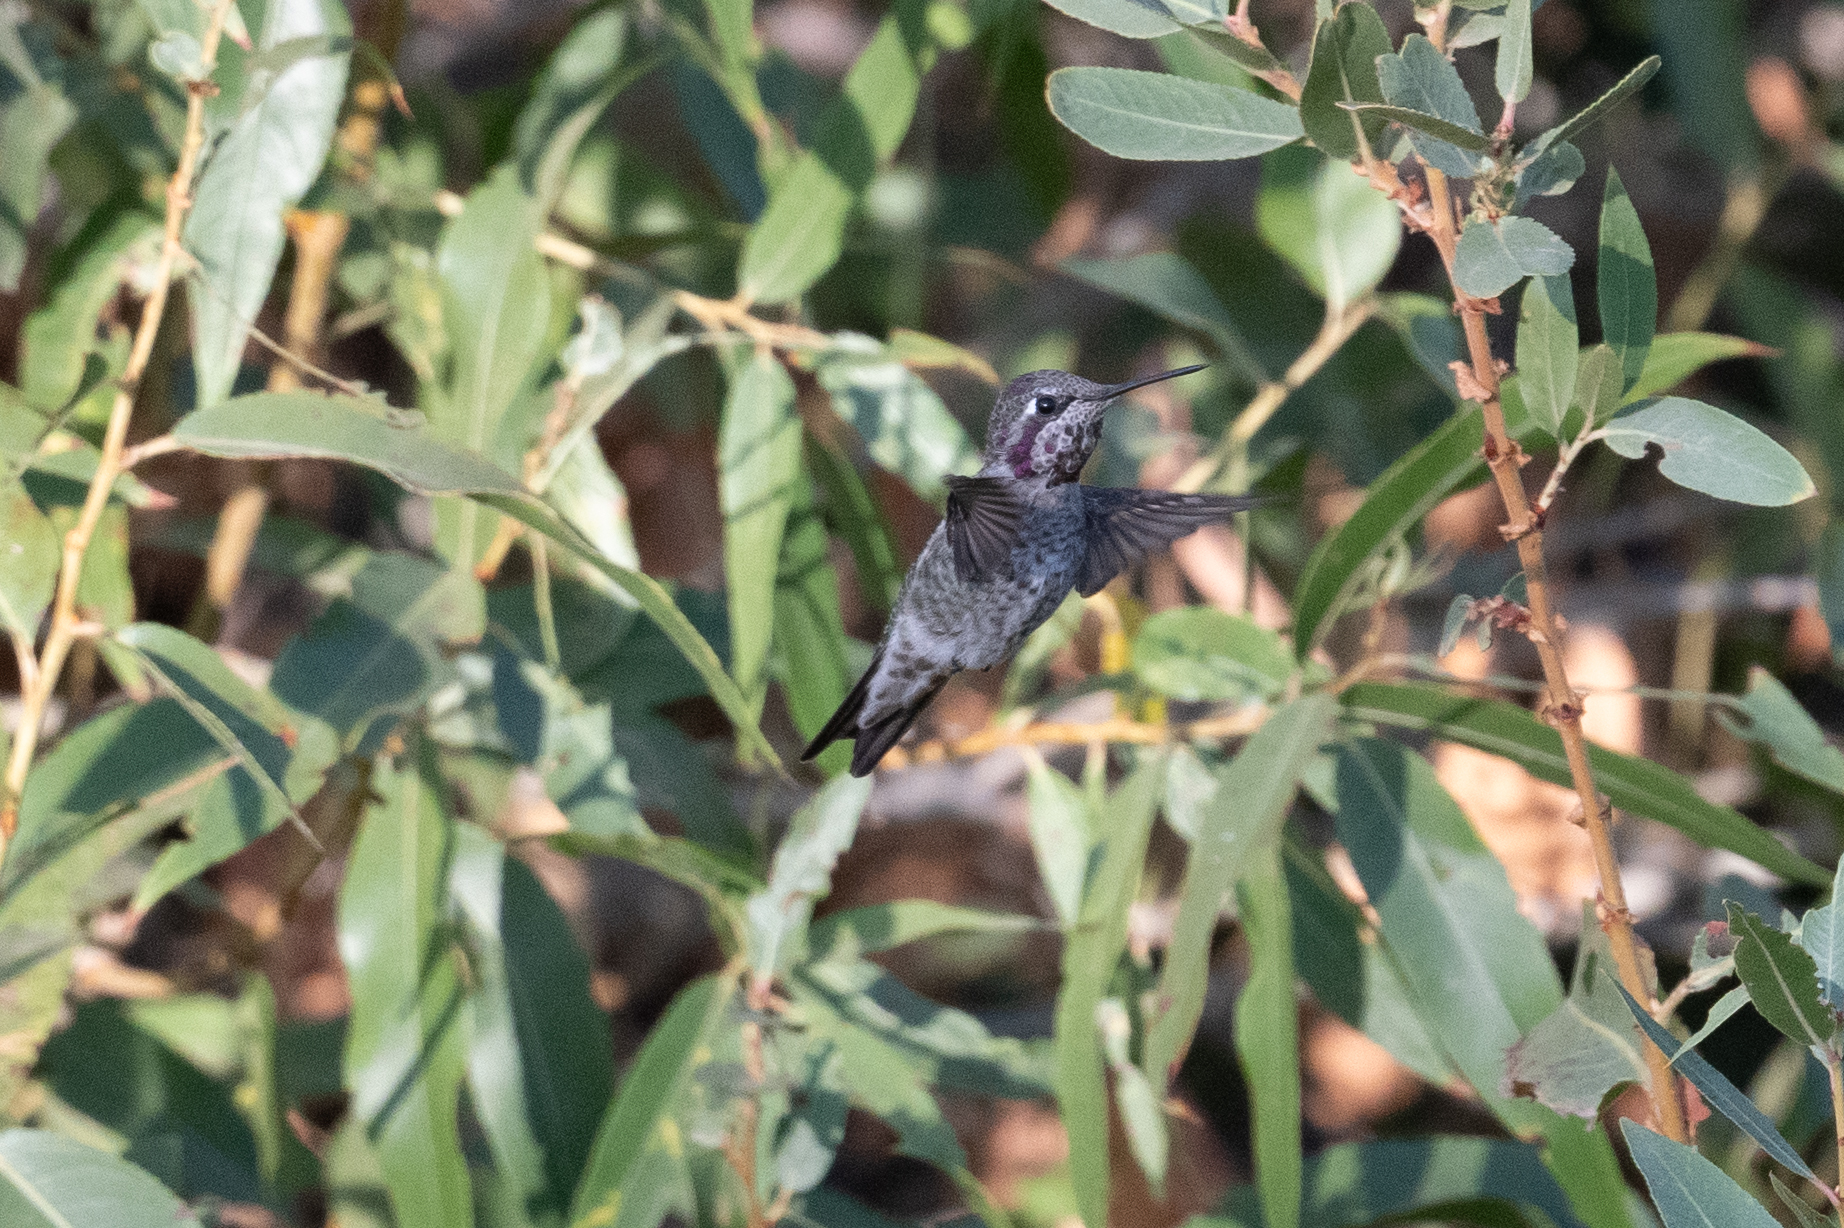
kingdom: Animalia
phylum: Chordata
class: Aves
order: Apodiformes
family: Trochilidae
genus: Calypte
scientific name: Calypte anna
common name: Anna's hummingbird
